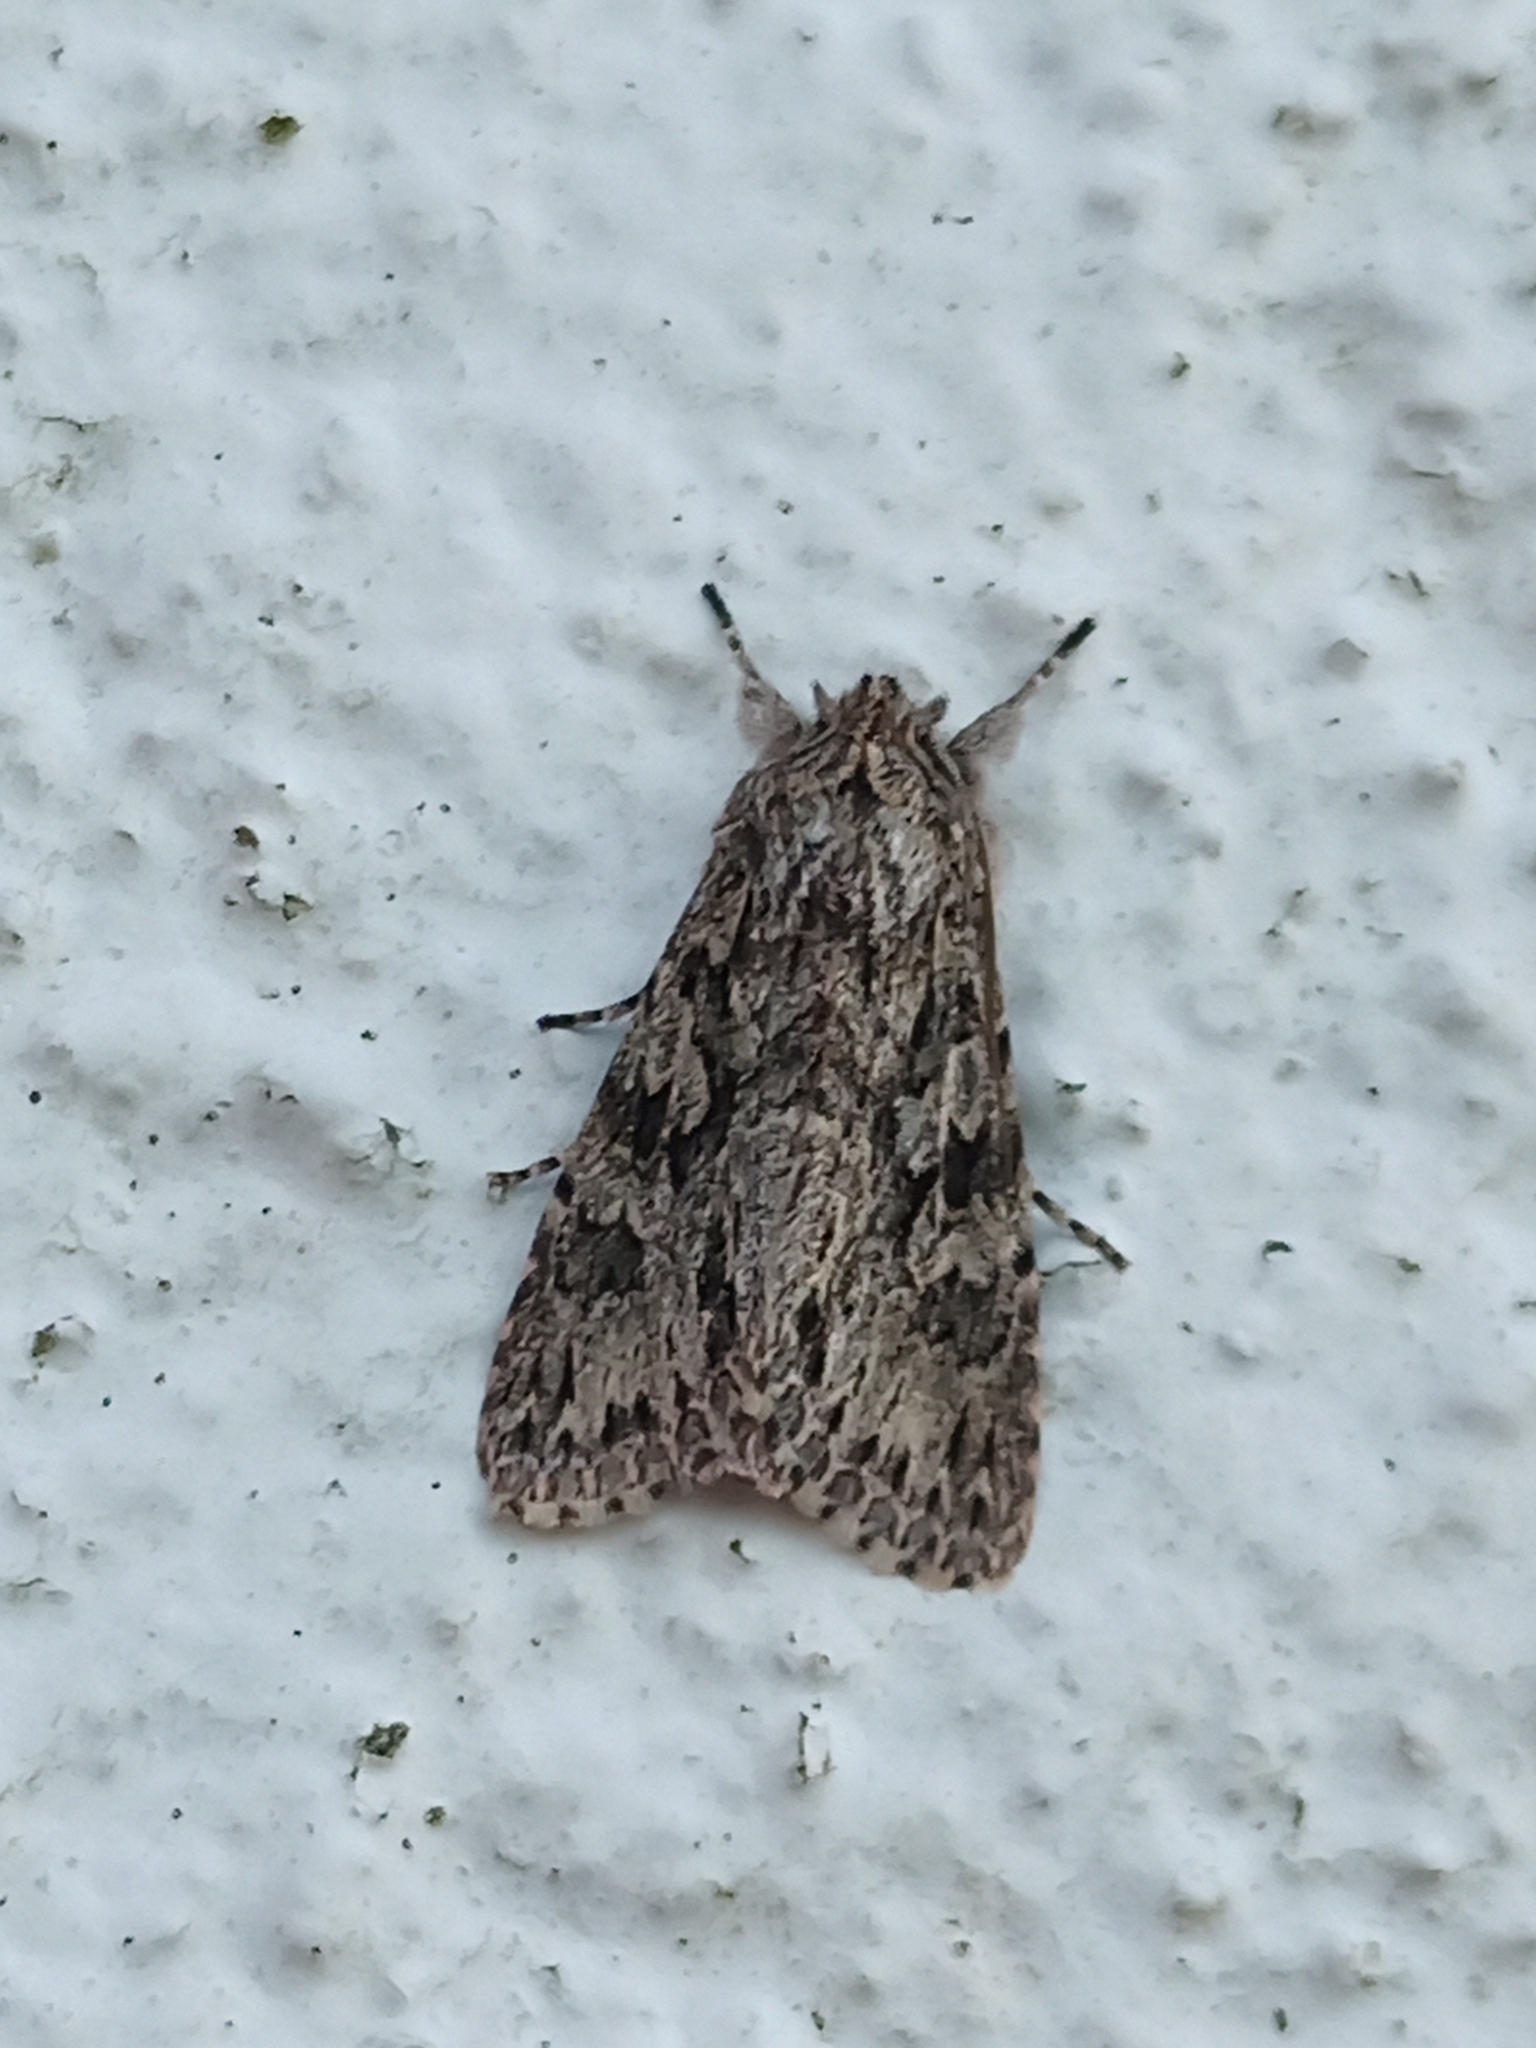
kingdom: Animalia
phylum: Arthropoda
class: Insecta
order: Lepidoptera
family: Noctuidae
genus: Xylocampa
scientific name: Xylocampa areola
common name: Early grey
